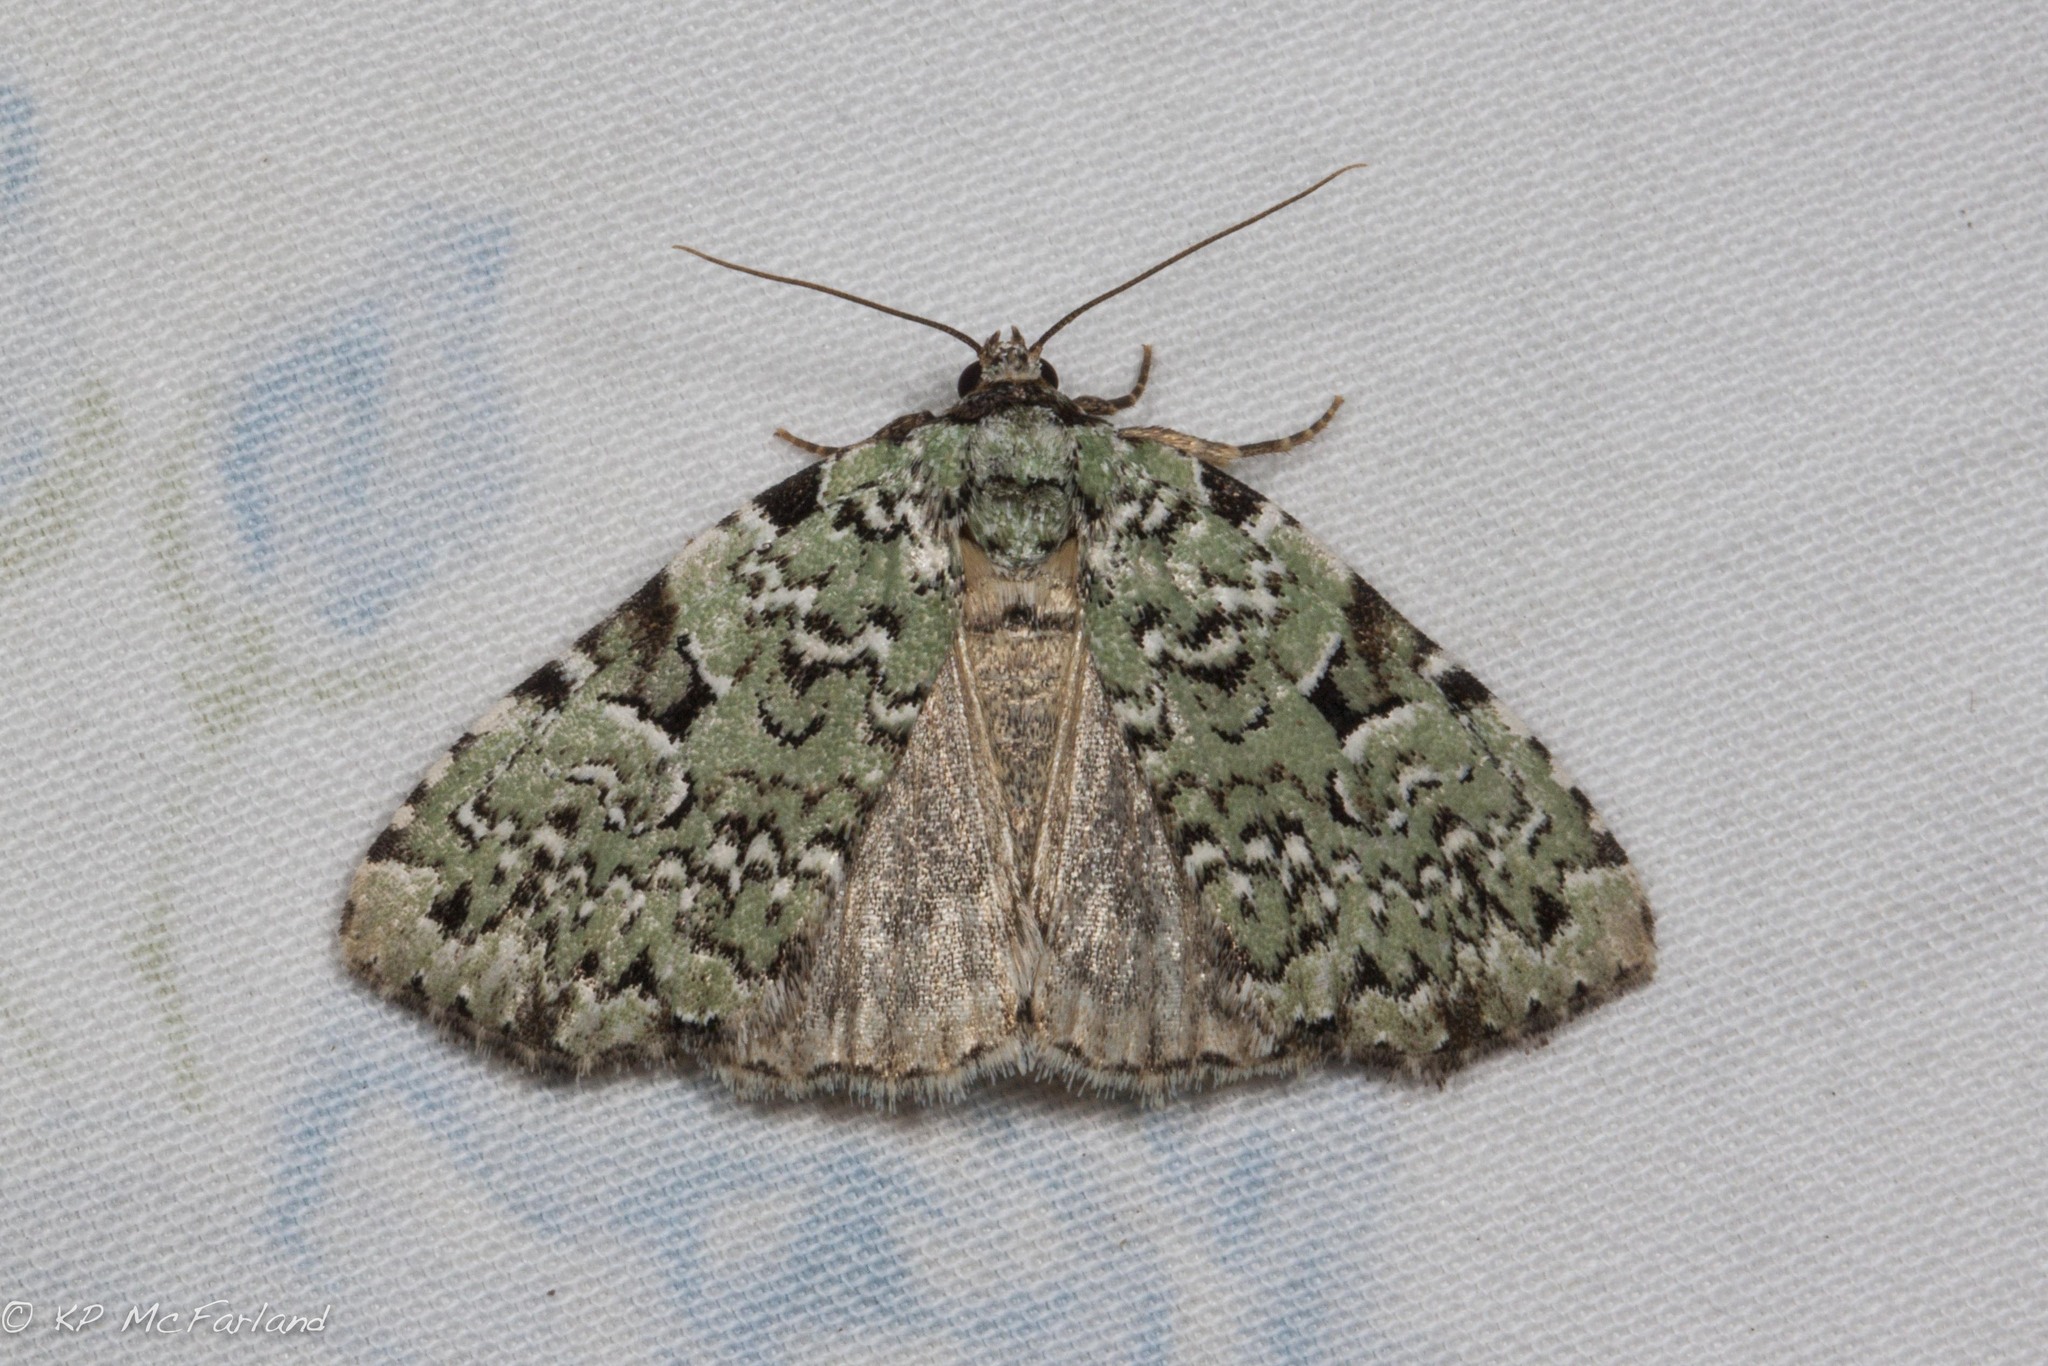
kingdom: Animalia
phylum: Arthropoda
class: Insecta
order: Lepidoptera
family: Noctuidae
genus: Leuconycta
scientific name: Leuconycta diphteroides
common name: Green leuconycta moth
